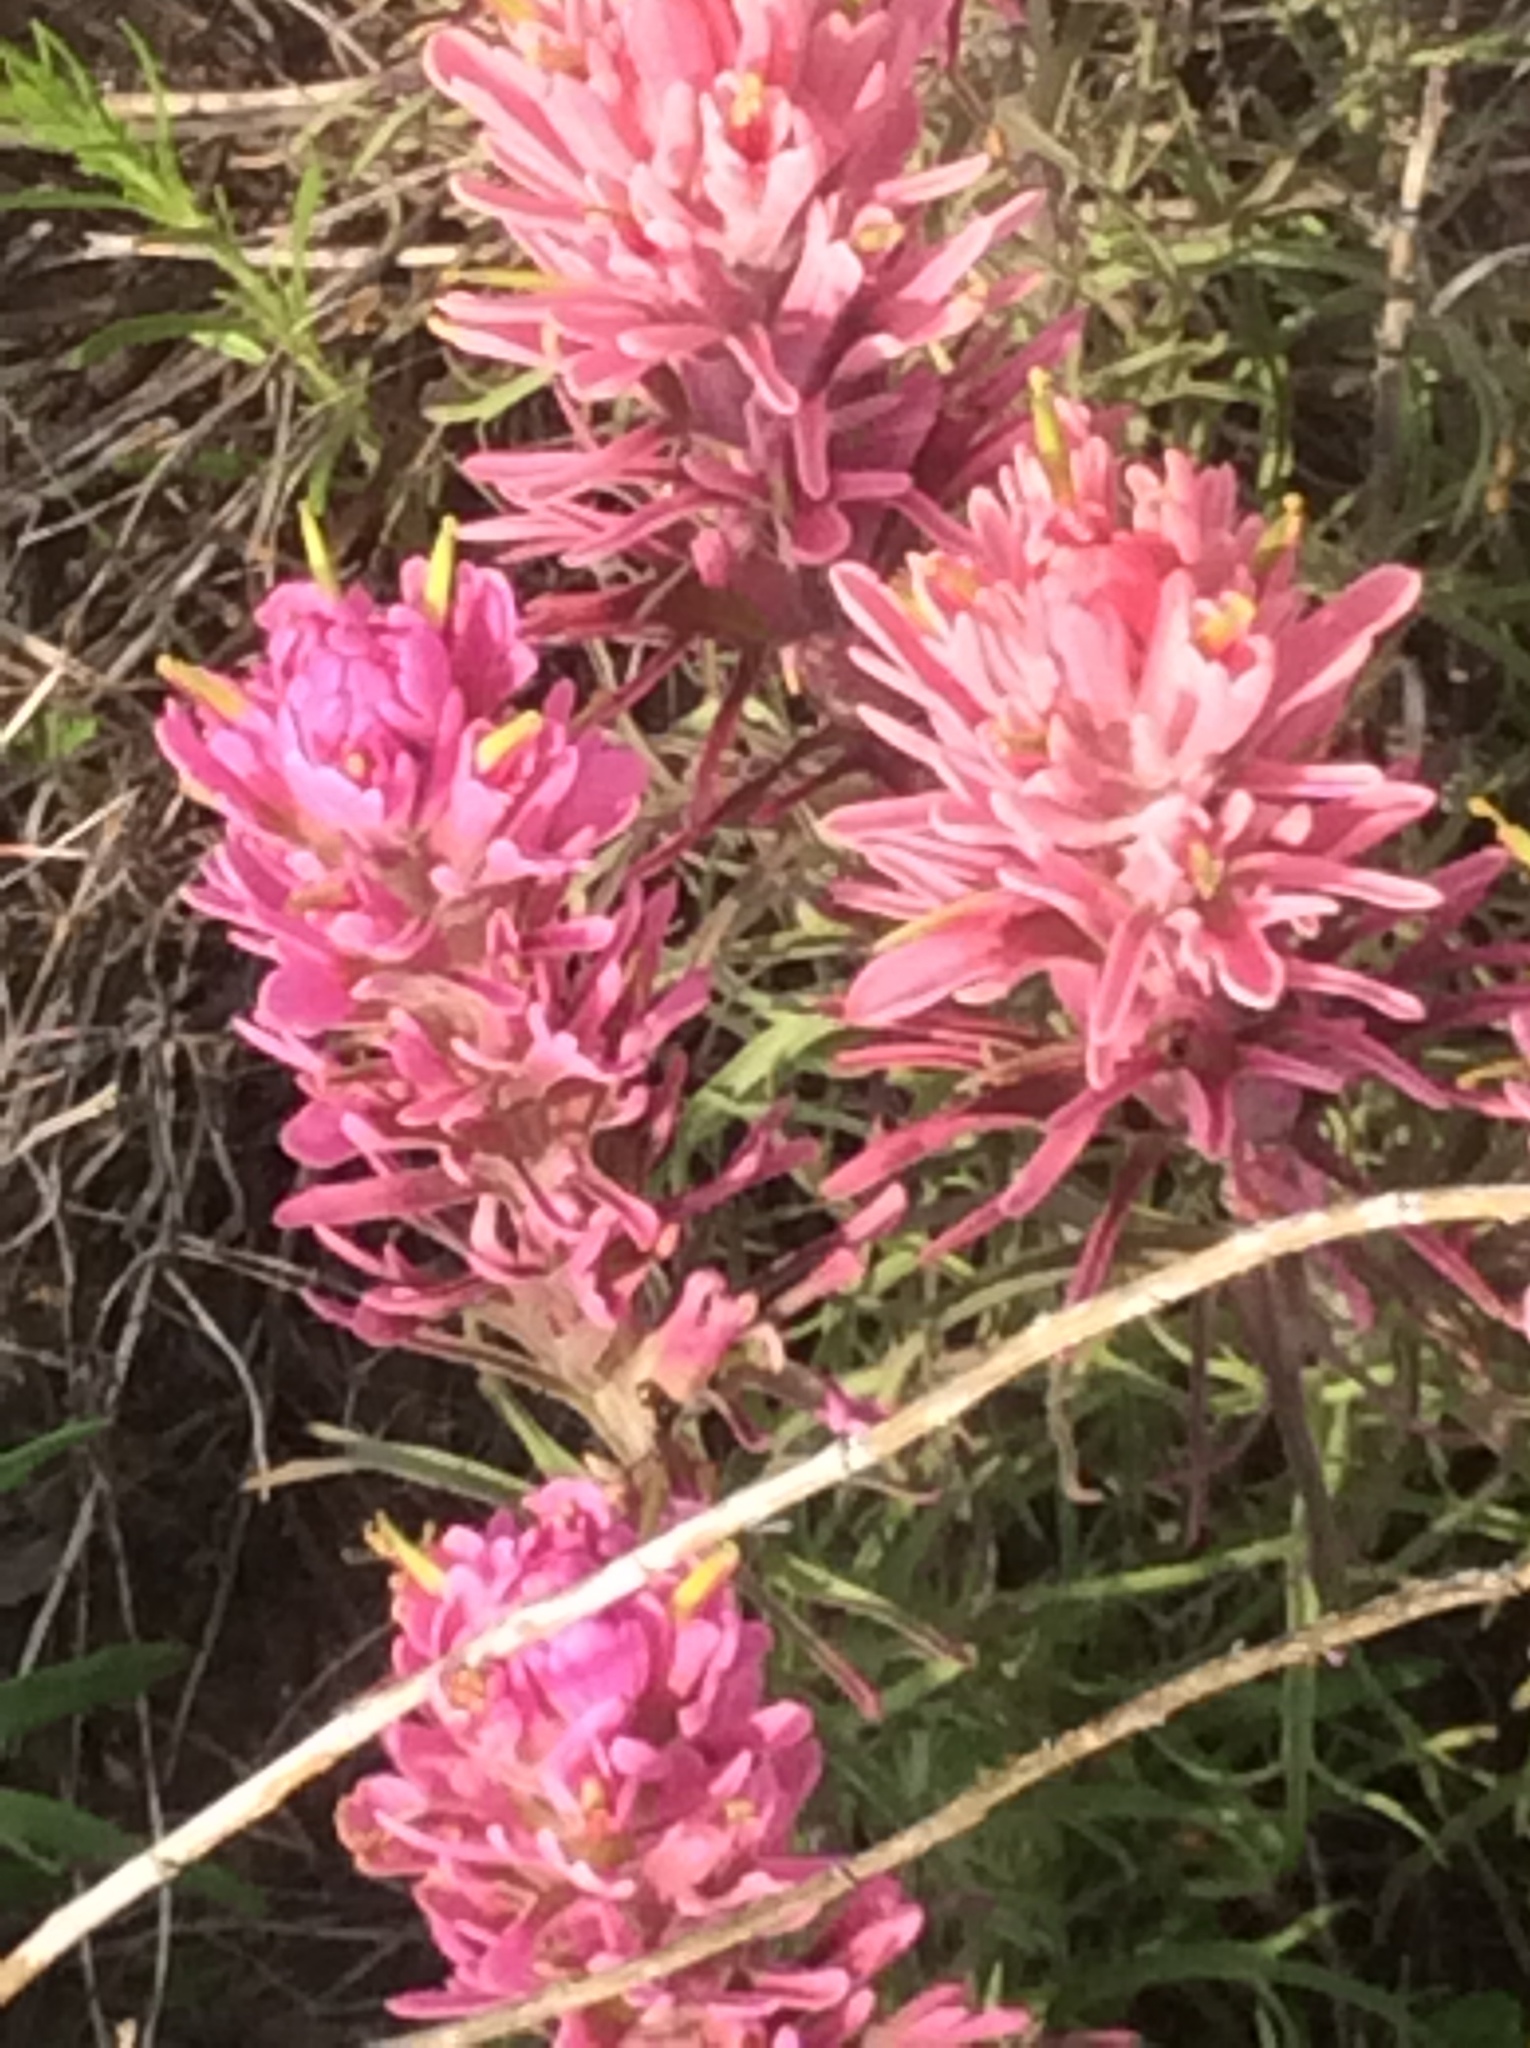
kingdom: Plantae
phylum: Tracheophyta
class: Magnoliopsida
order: Lamiales
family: Orobanchaceae
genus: Castilleja
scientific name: Castilleja purpurea
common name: Plains paintbrush
